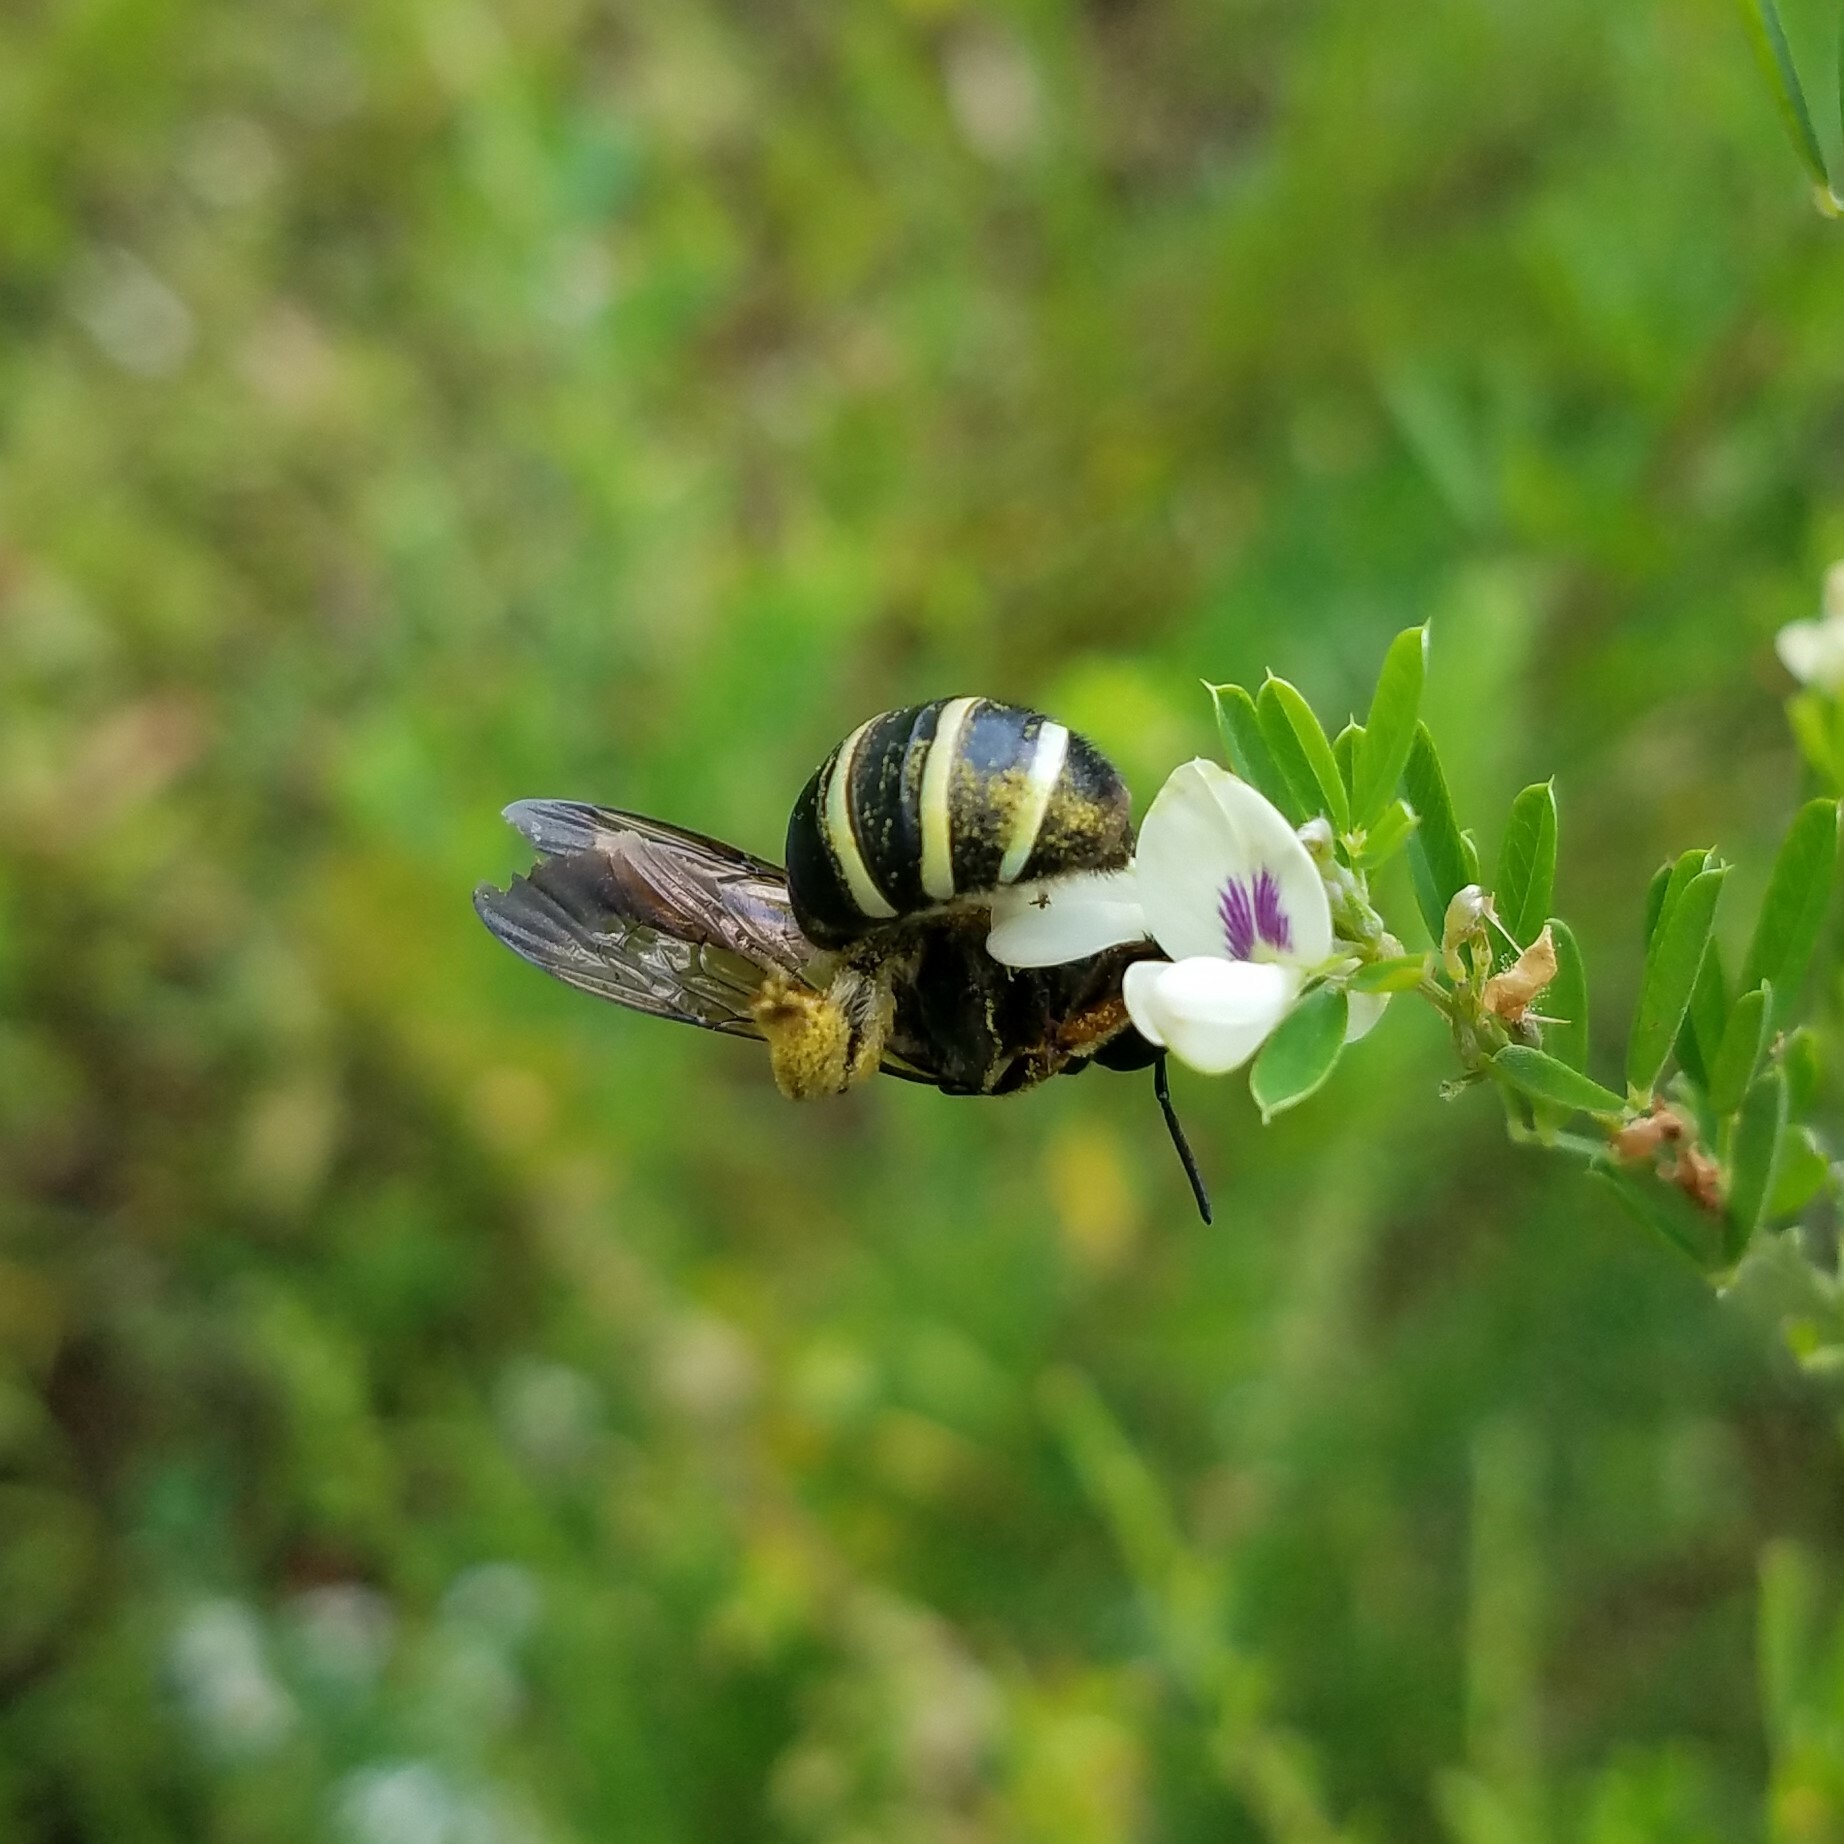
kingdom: Animalia
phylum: Arthropoda
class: Insecta
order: Hymenoptera
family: Halictidae
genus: Nomia
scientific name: Nomia nortoni
